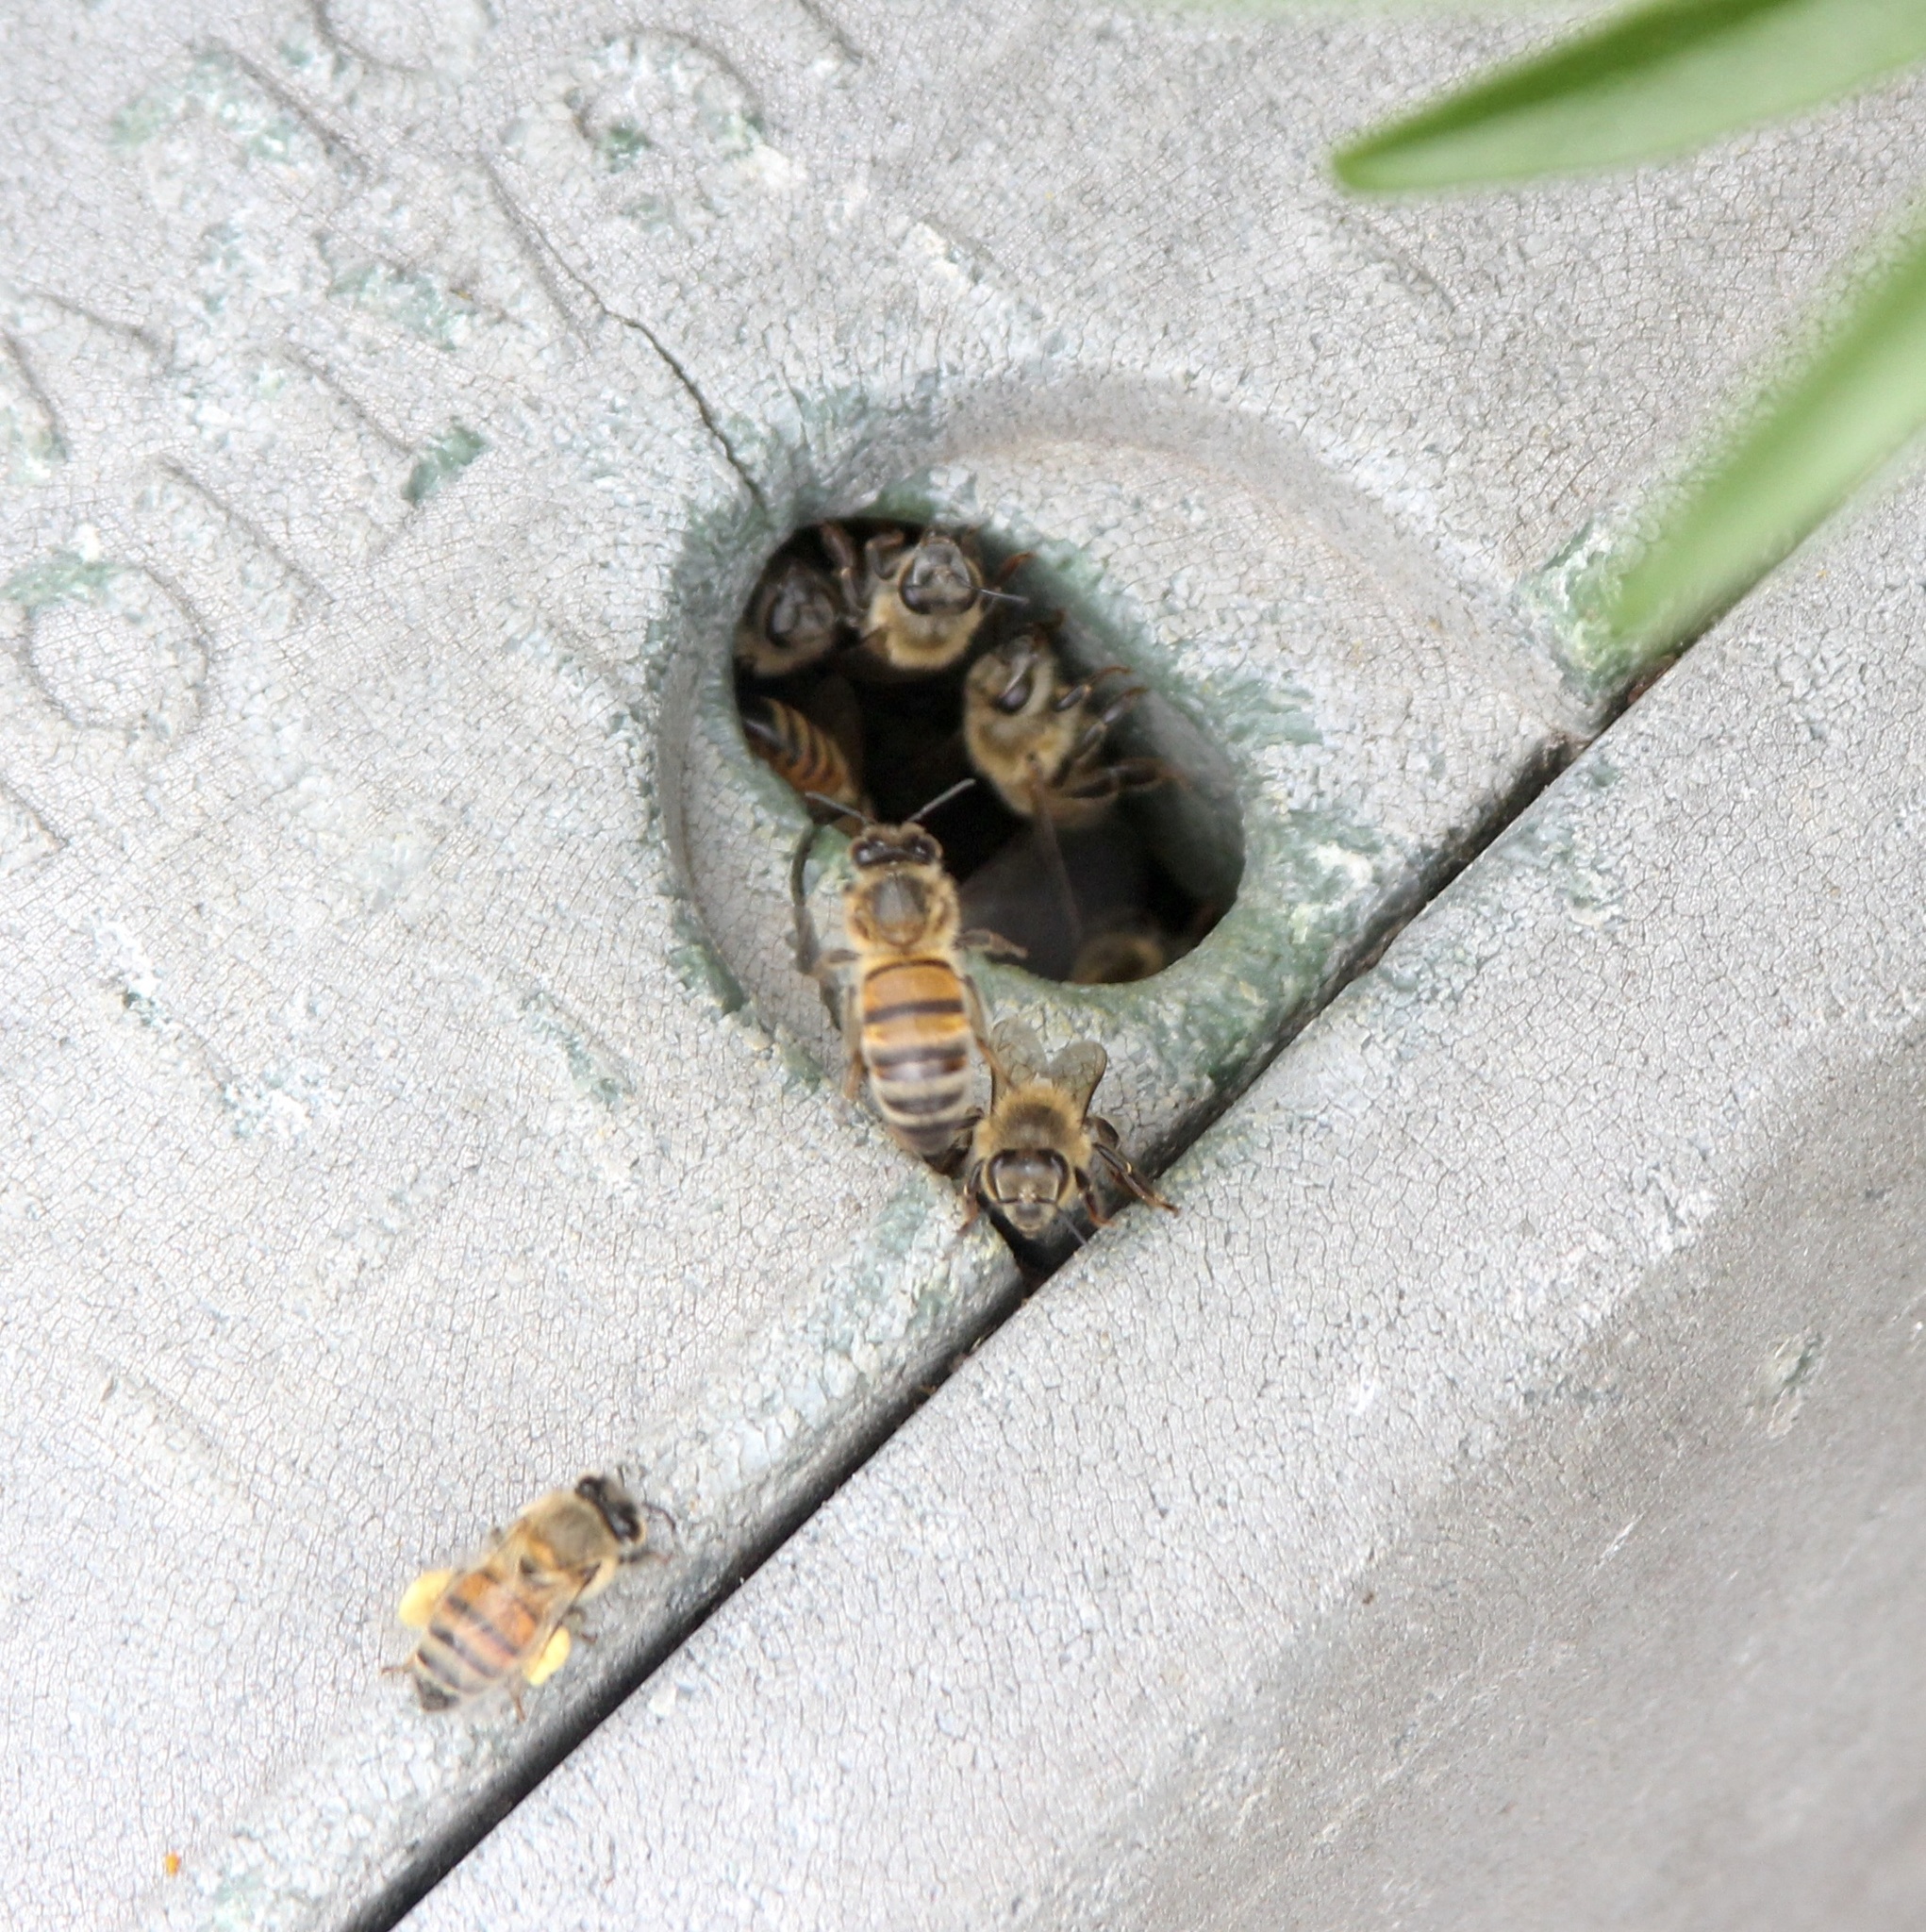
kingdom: Animalia
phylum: Arthropoda
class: Insecta
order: Hymenoptera
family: Apidae
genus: Apis
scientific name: Apis mellifera
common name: Honey bee
